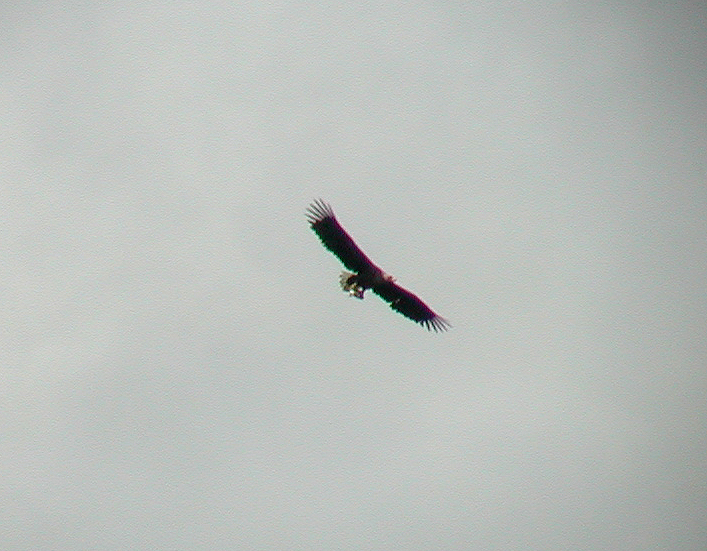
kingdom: Animalia
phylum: Chordata
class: Aves
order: Accipitriformes
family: Accipitridae
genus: Haliaeetus
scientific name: Haliaeetus albicilla
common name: White-tailed eagle
